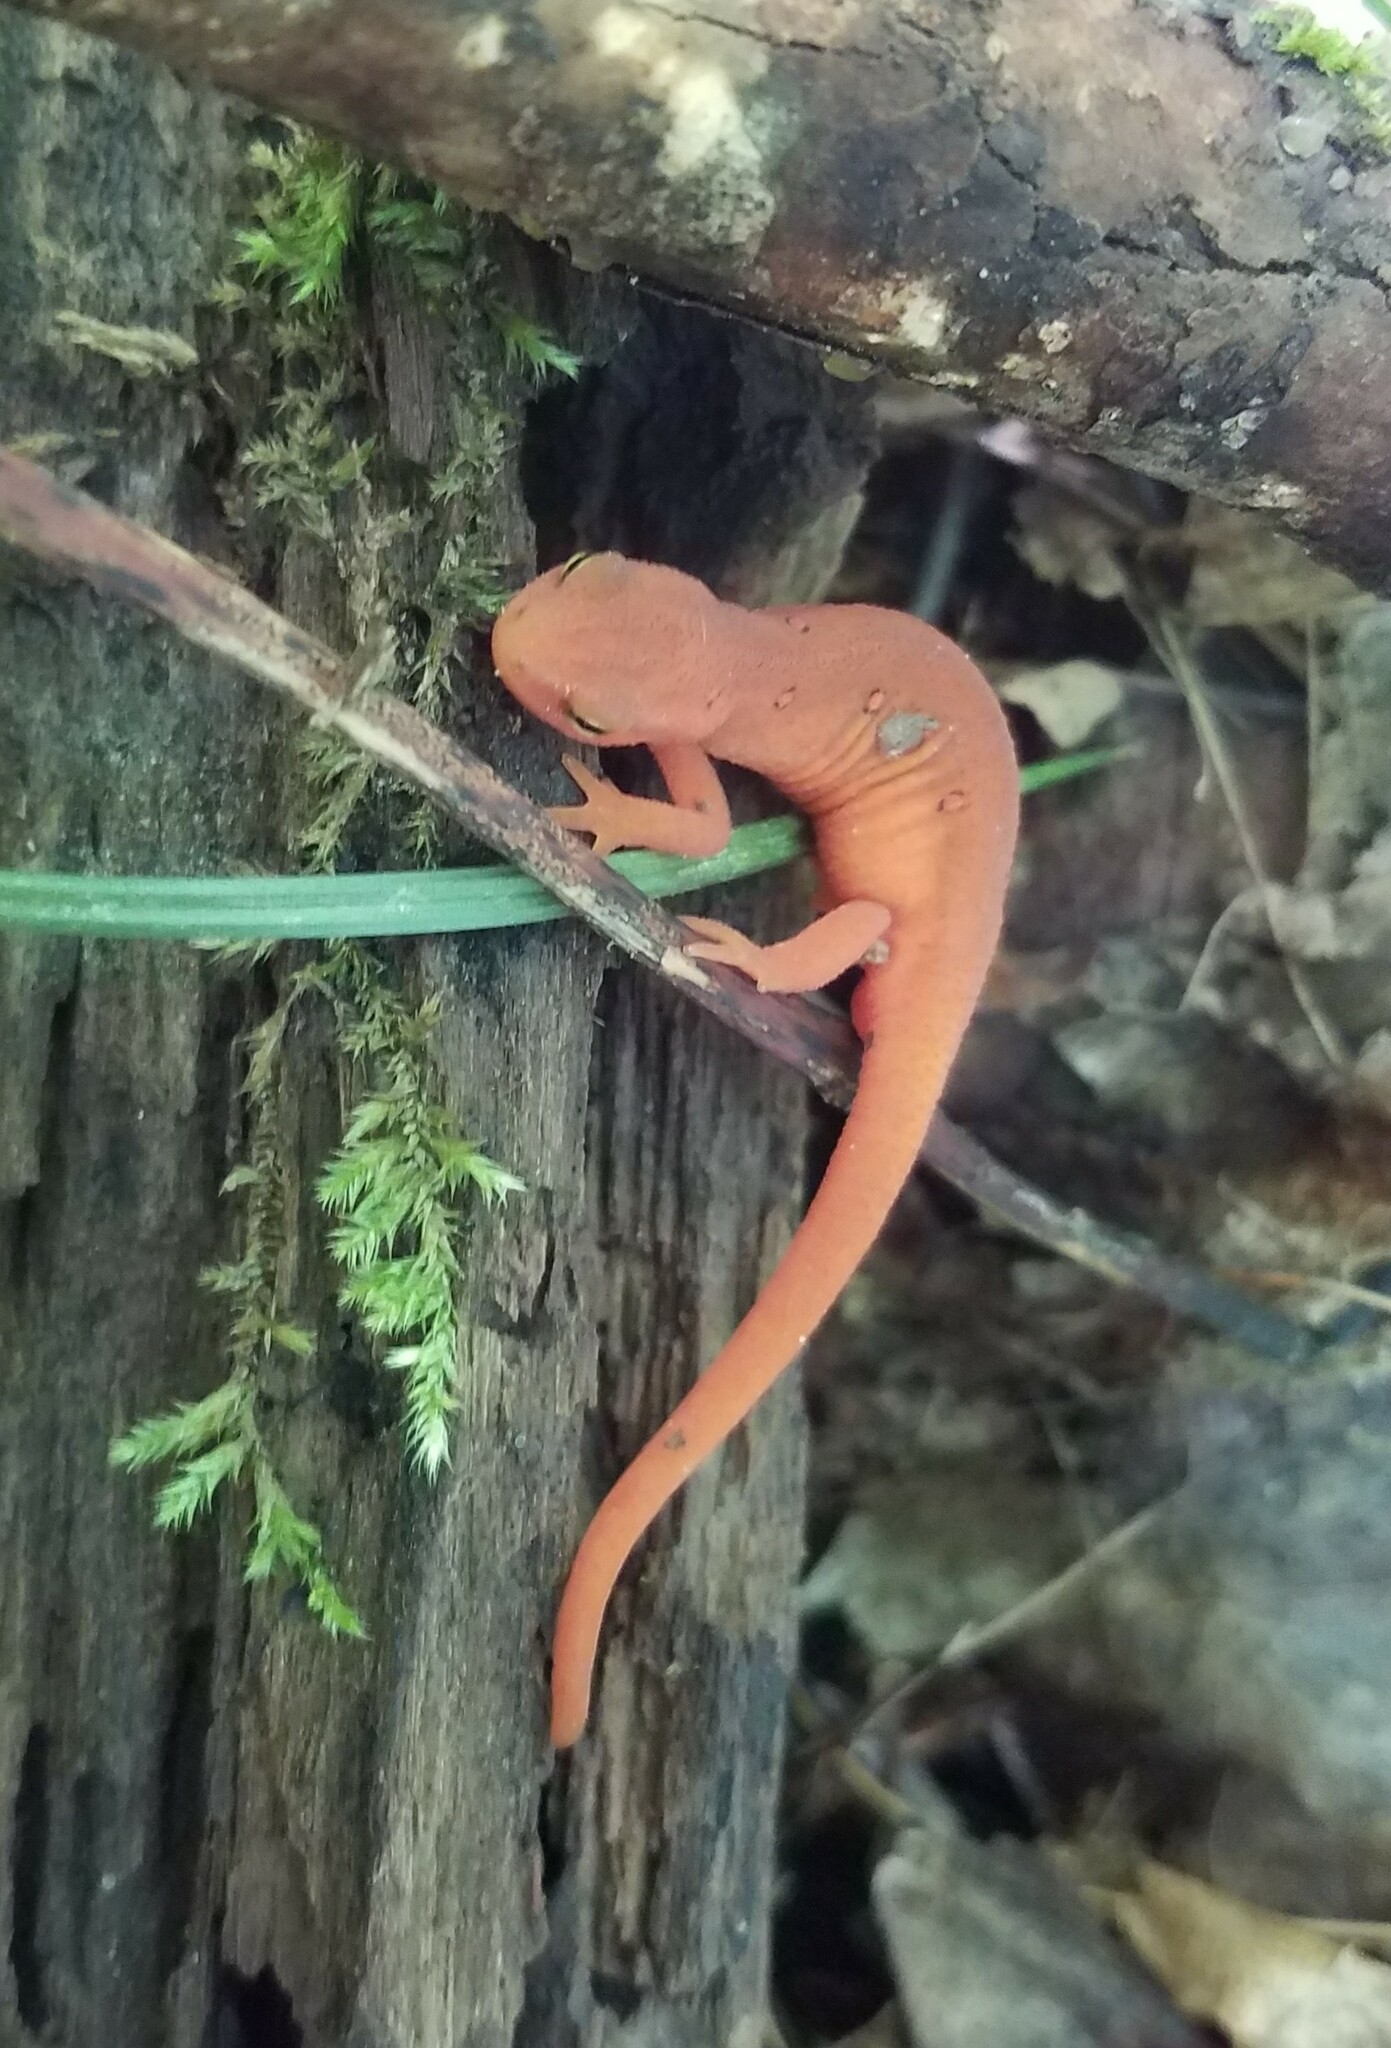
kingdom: Animalia
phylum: Chordata
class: Amphibia
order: Caudata
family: Salamandridae
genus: Notophthalmus
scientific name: Notophthalmus viridescens
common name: Eastern newt
